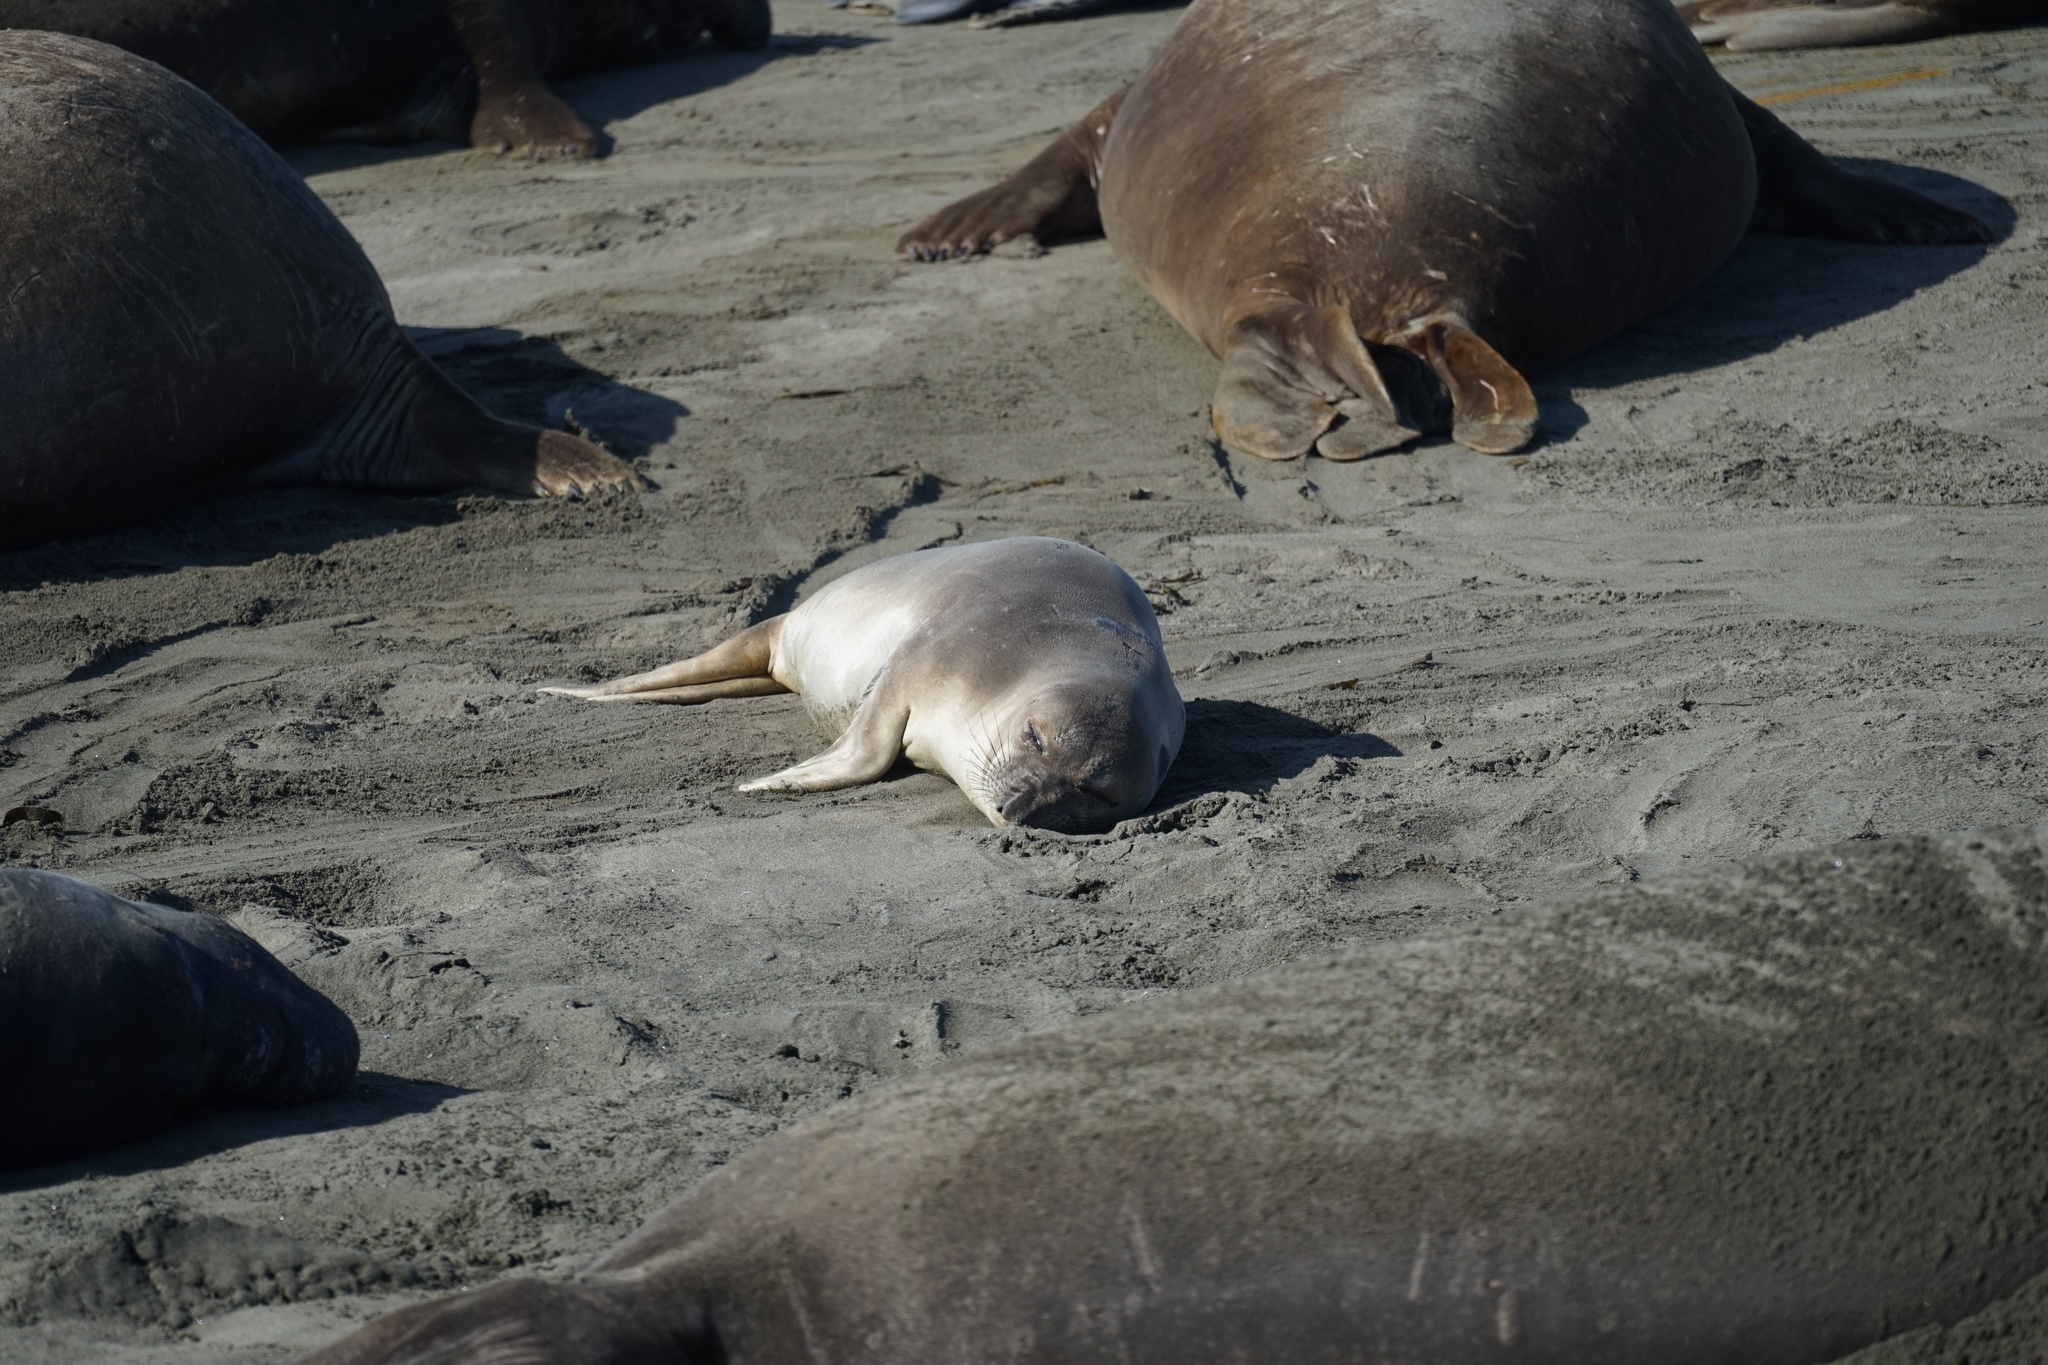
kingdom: Animalia
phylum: Chordata
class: Mammalia
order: Carnivora
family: Phocidae
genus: Mirounga
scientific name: Mirounga angustirostris
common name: Northern elephant seal
